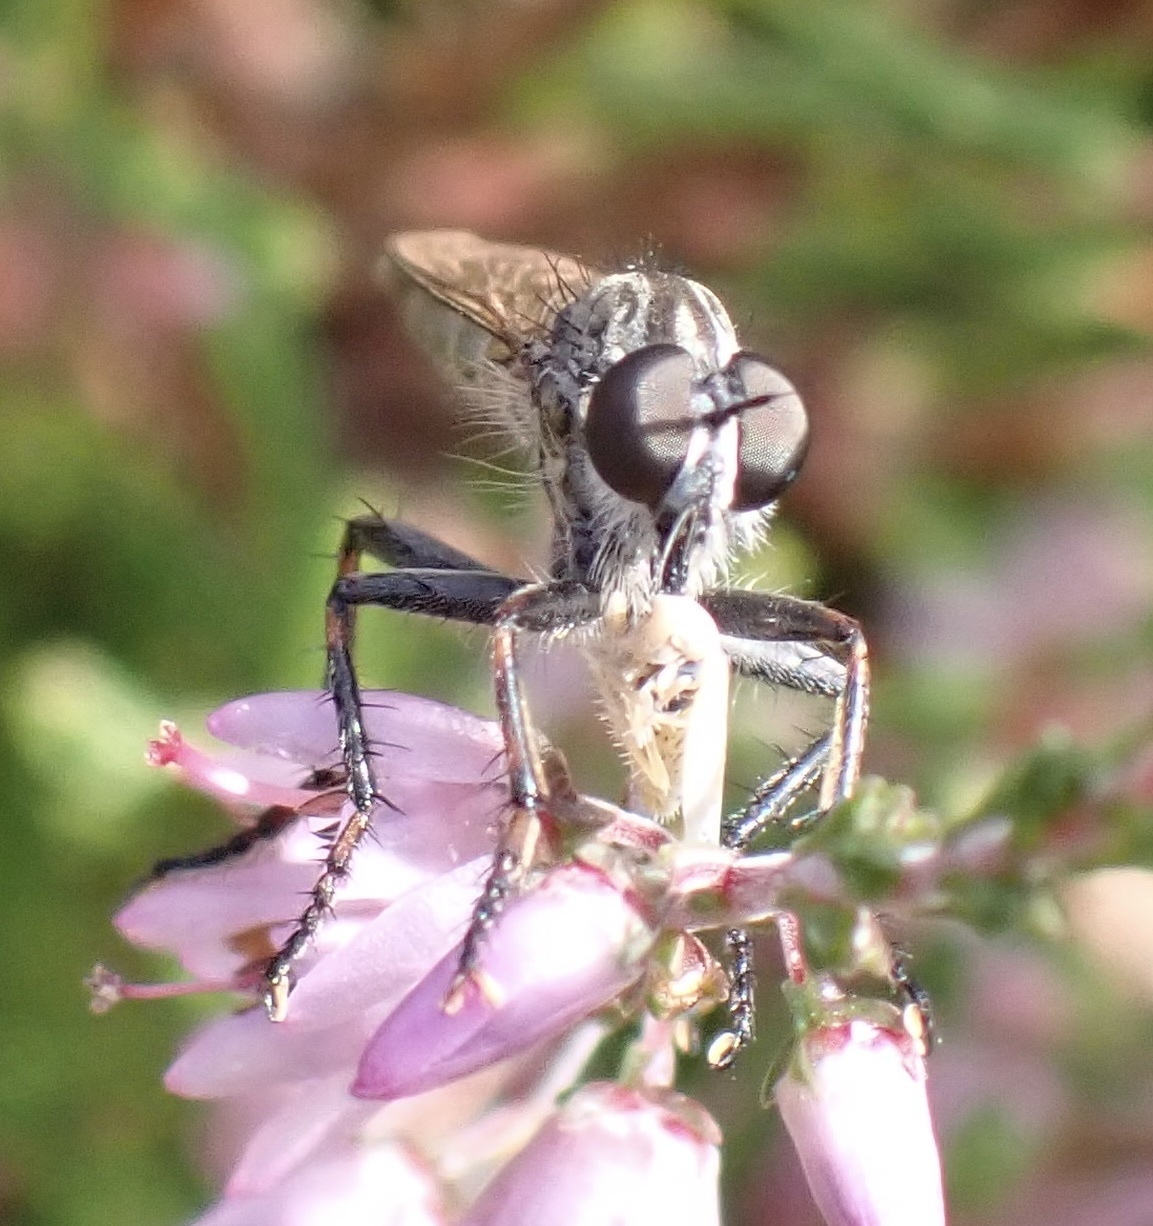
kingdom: Animalia
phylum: Arthropoda
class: Insecta
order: Diptera
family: Asilidae
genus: Machimus
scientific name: Machimus atricapillus
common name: Kite-tailed robberfly
